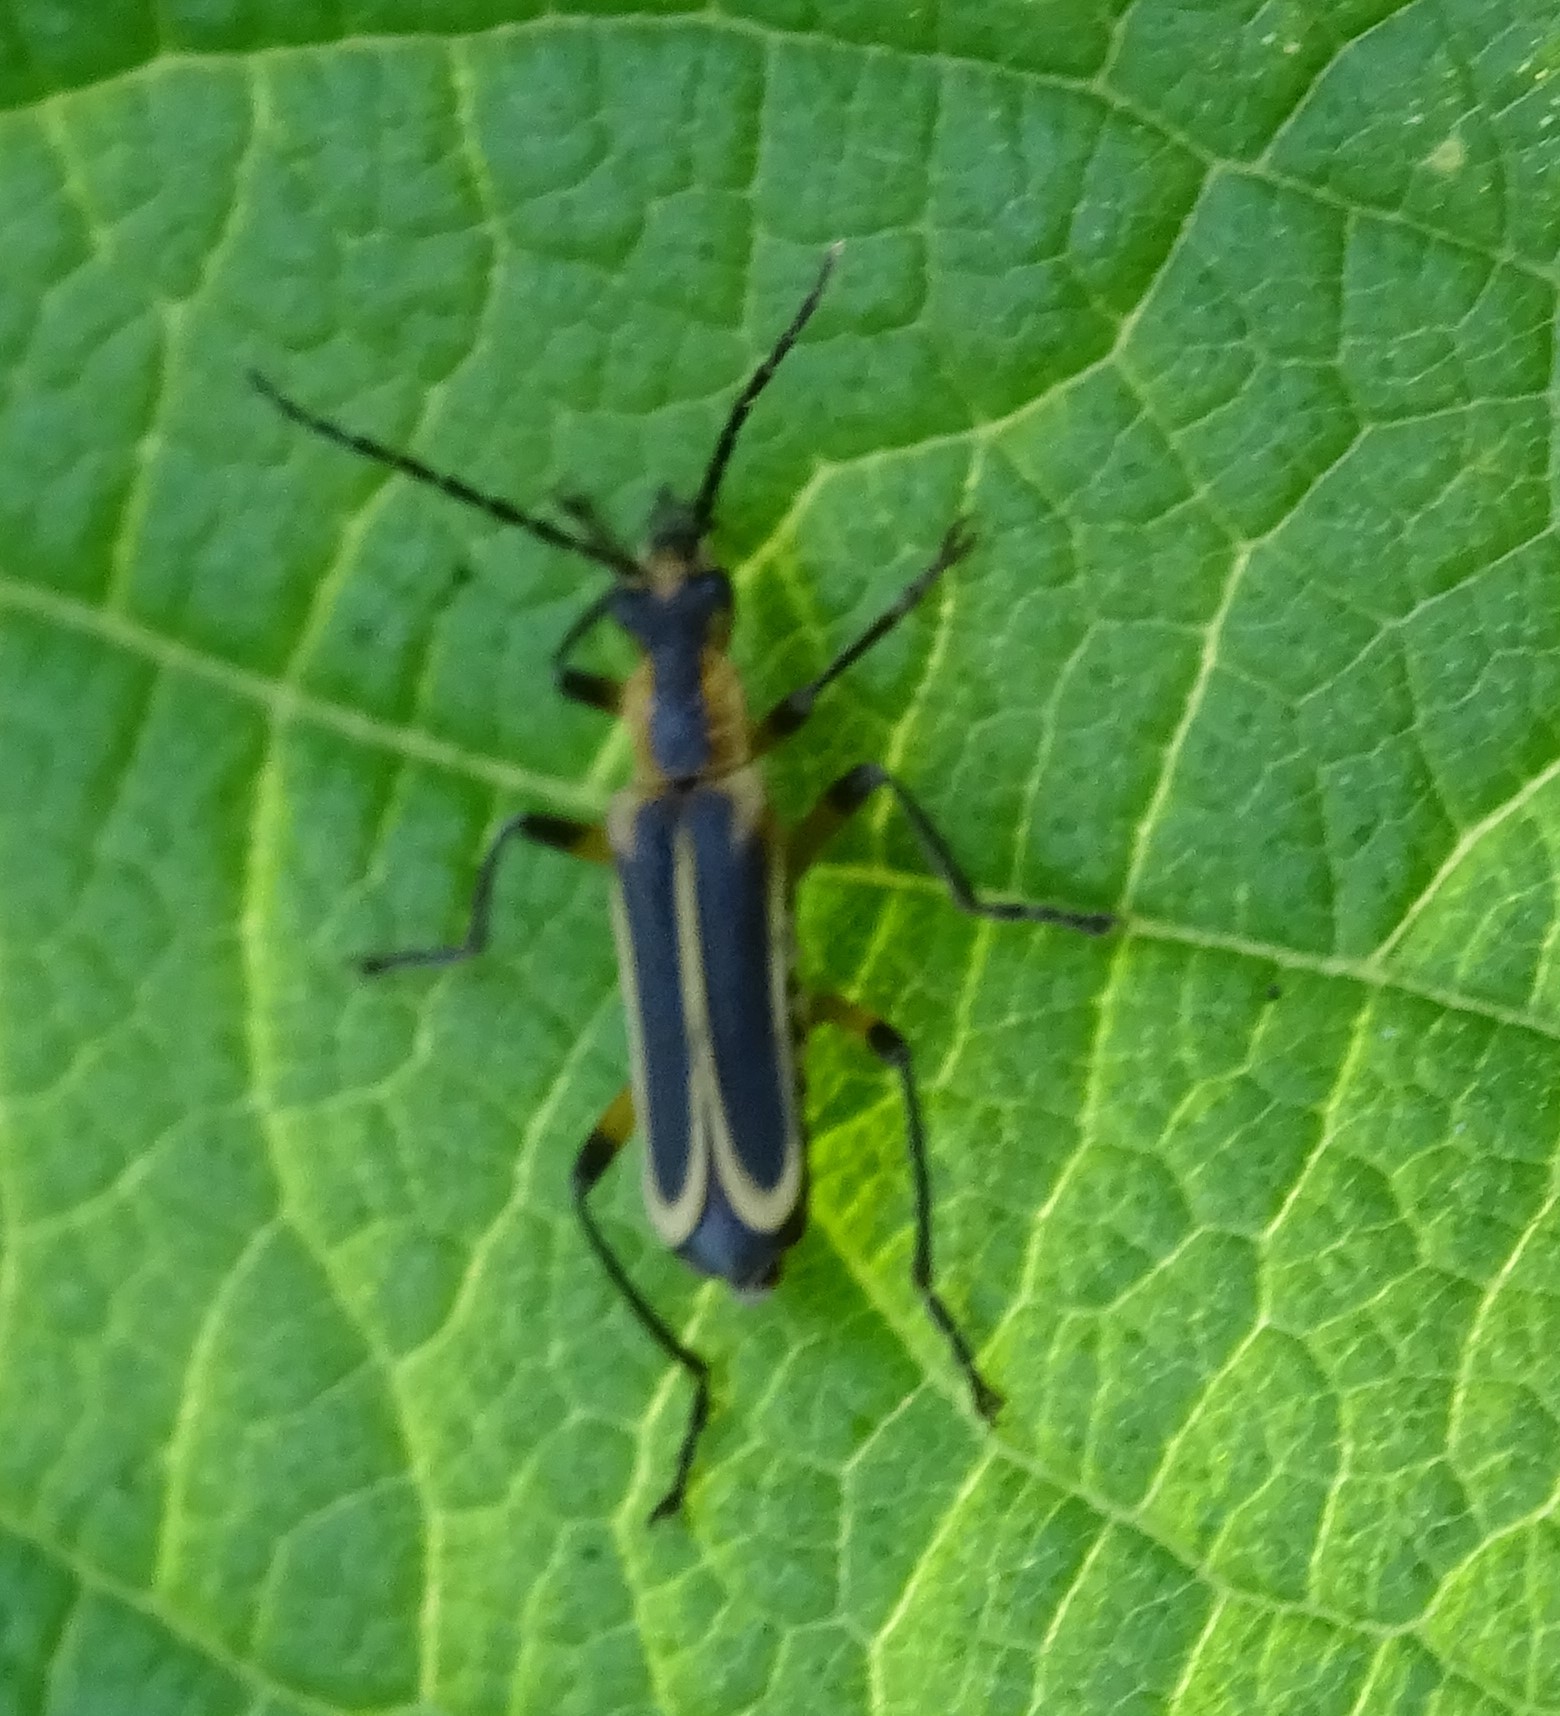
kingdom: Animalia
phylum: Arthropoda
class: Insecta
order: Coleoptera
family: Cantharidae
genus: Chauliognathus
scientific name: Chauliognathus marginatus
